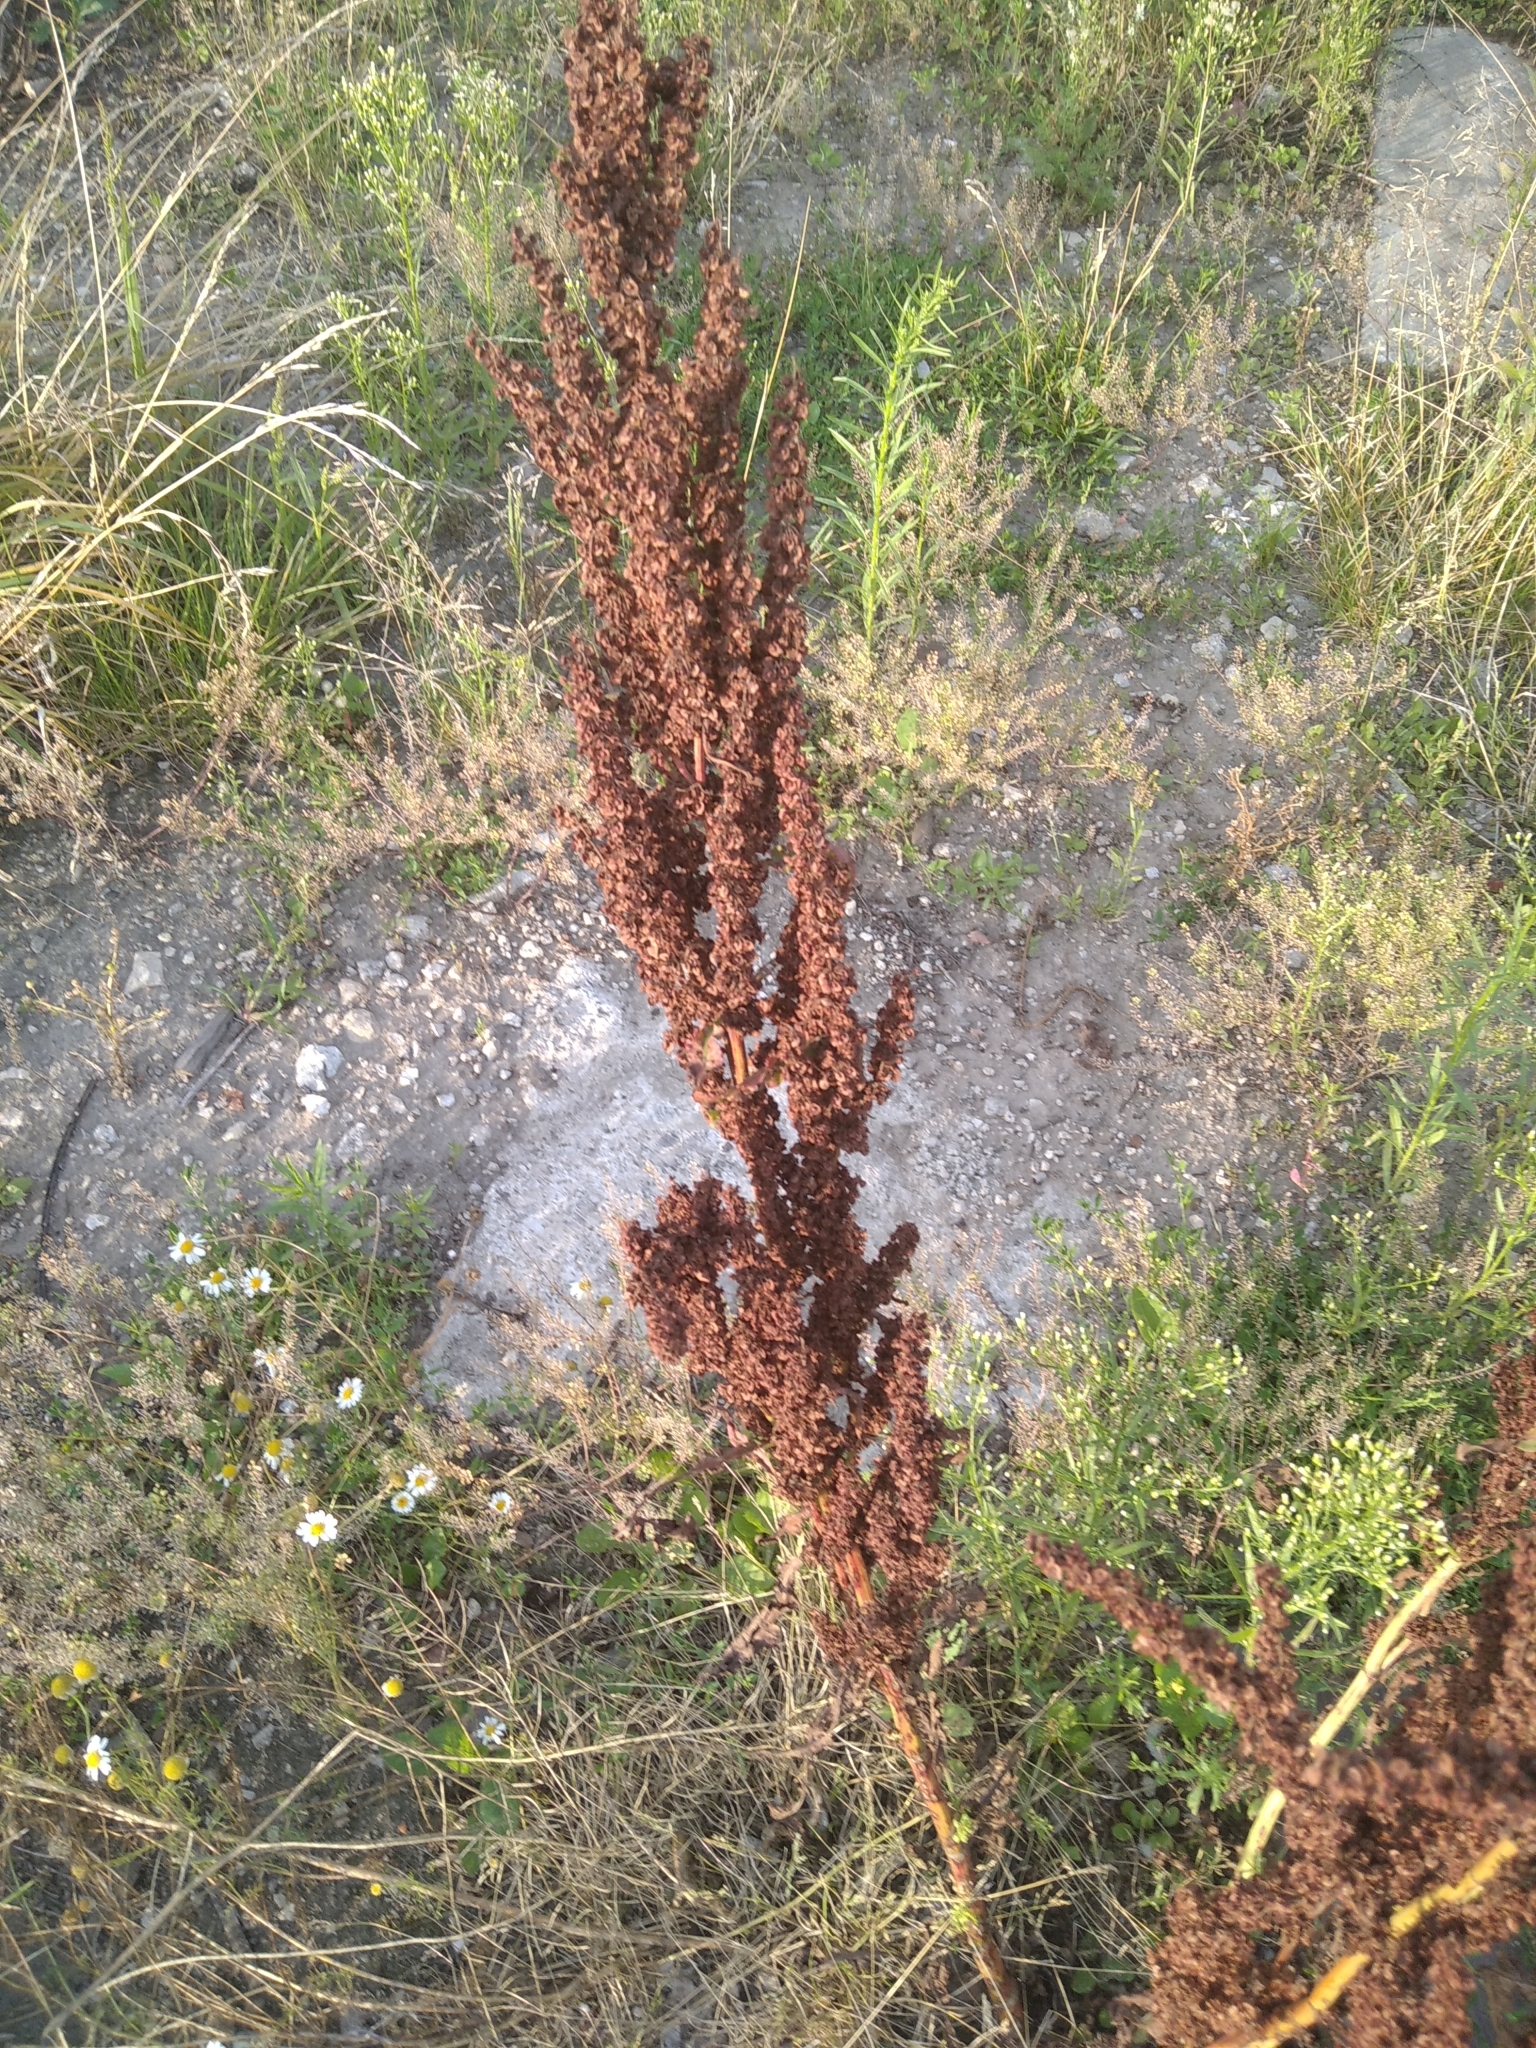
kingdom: Plantae
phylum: Tracheophyta
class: Magnoliopsida
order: Caryophyllales
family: Polygonaceae
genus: Rumex
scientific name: Rumex crispus
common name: Curled dock
